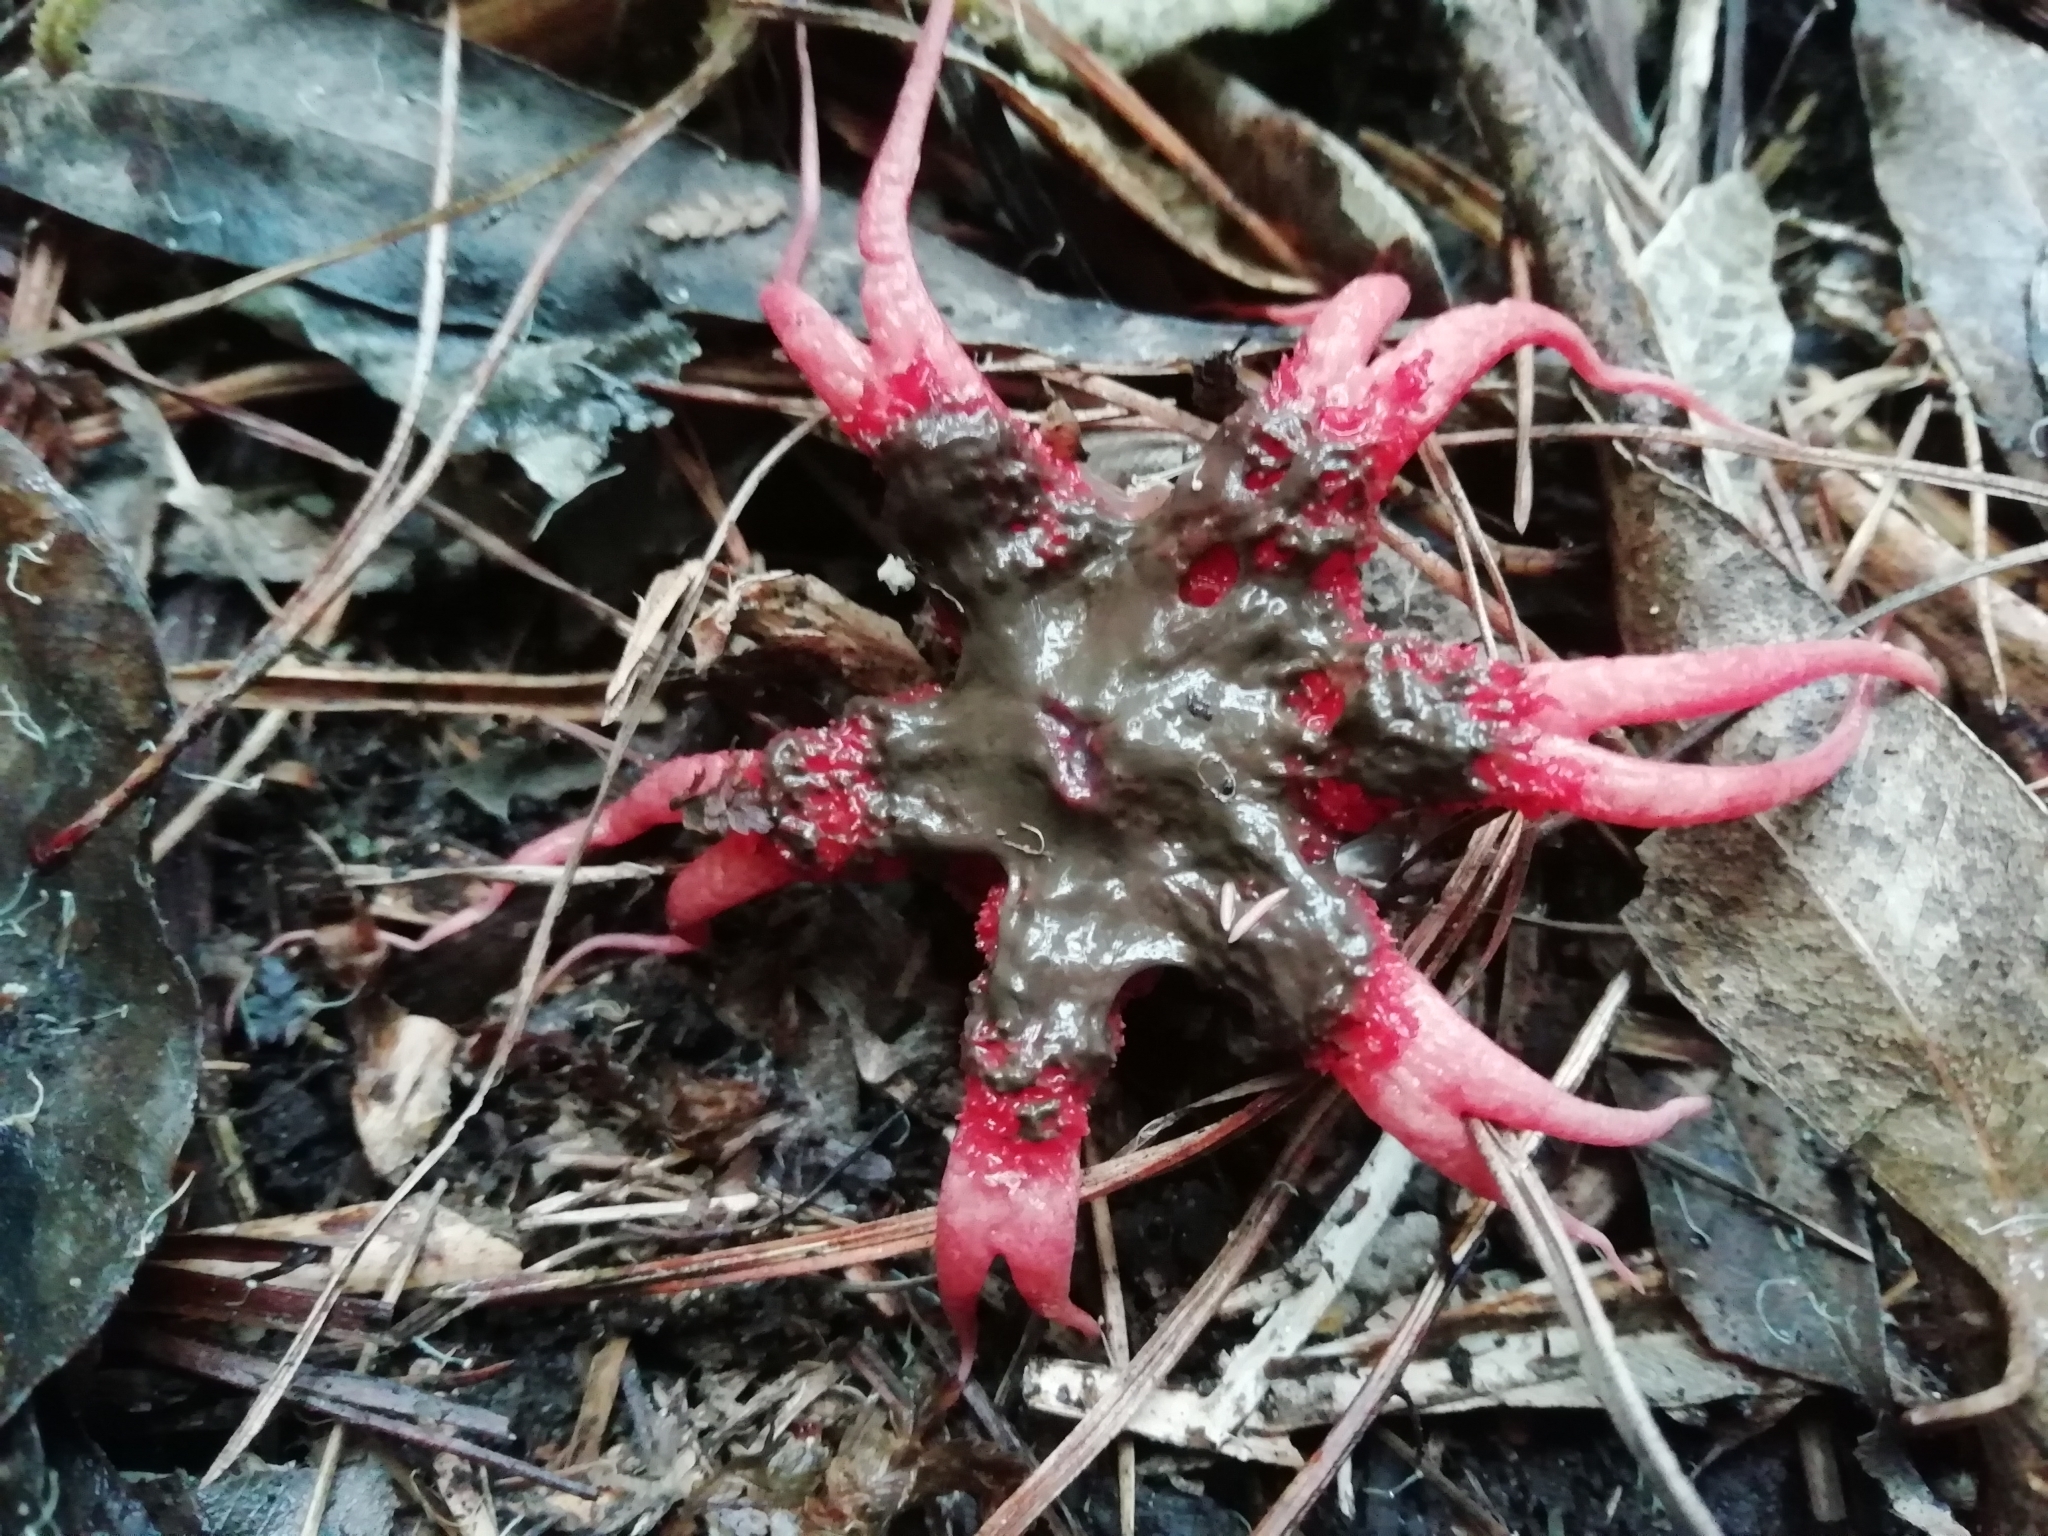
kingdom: Fungi
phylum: Basidiomycota
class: Agaricomycetes
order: Phallales
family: Phallaceae
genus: Aseroe
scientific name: Aseroe rubra
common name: Starfish fungus
